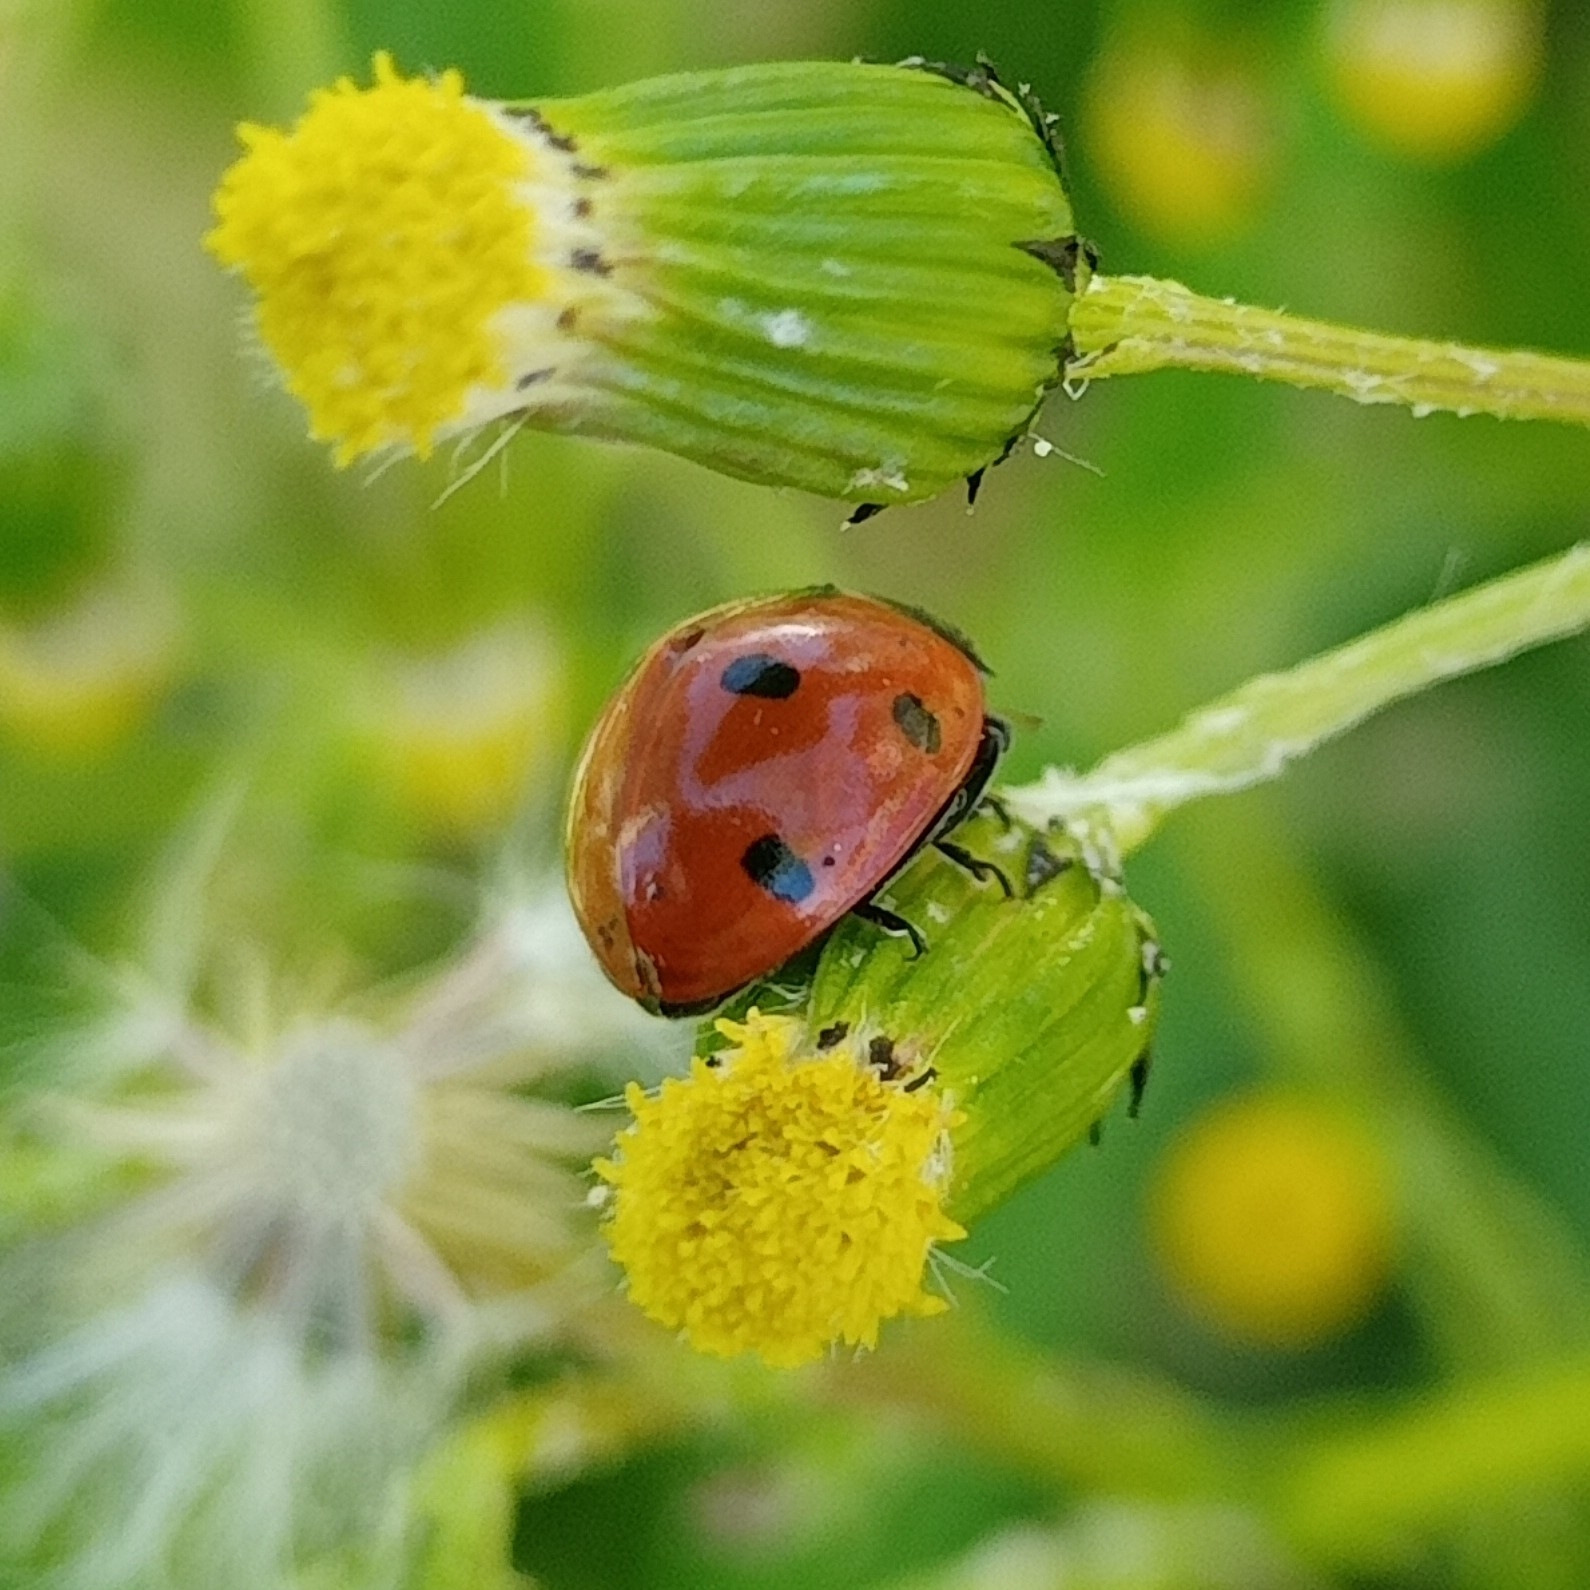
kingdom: Animalia
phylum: Arthropoda
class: Insecta
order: Coleoptera
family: Coccinellidae
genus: Coccinella
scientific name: Coccinella septempunctata
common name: Sevenspotted lady beetle
